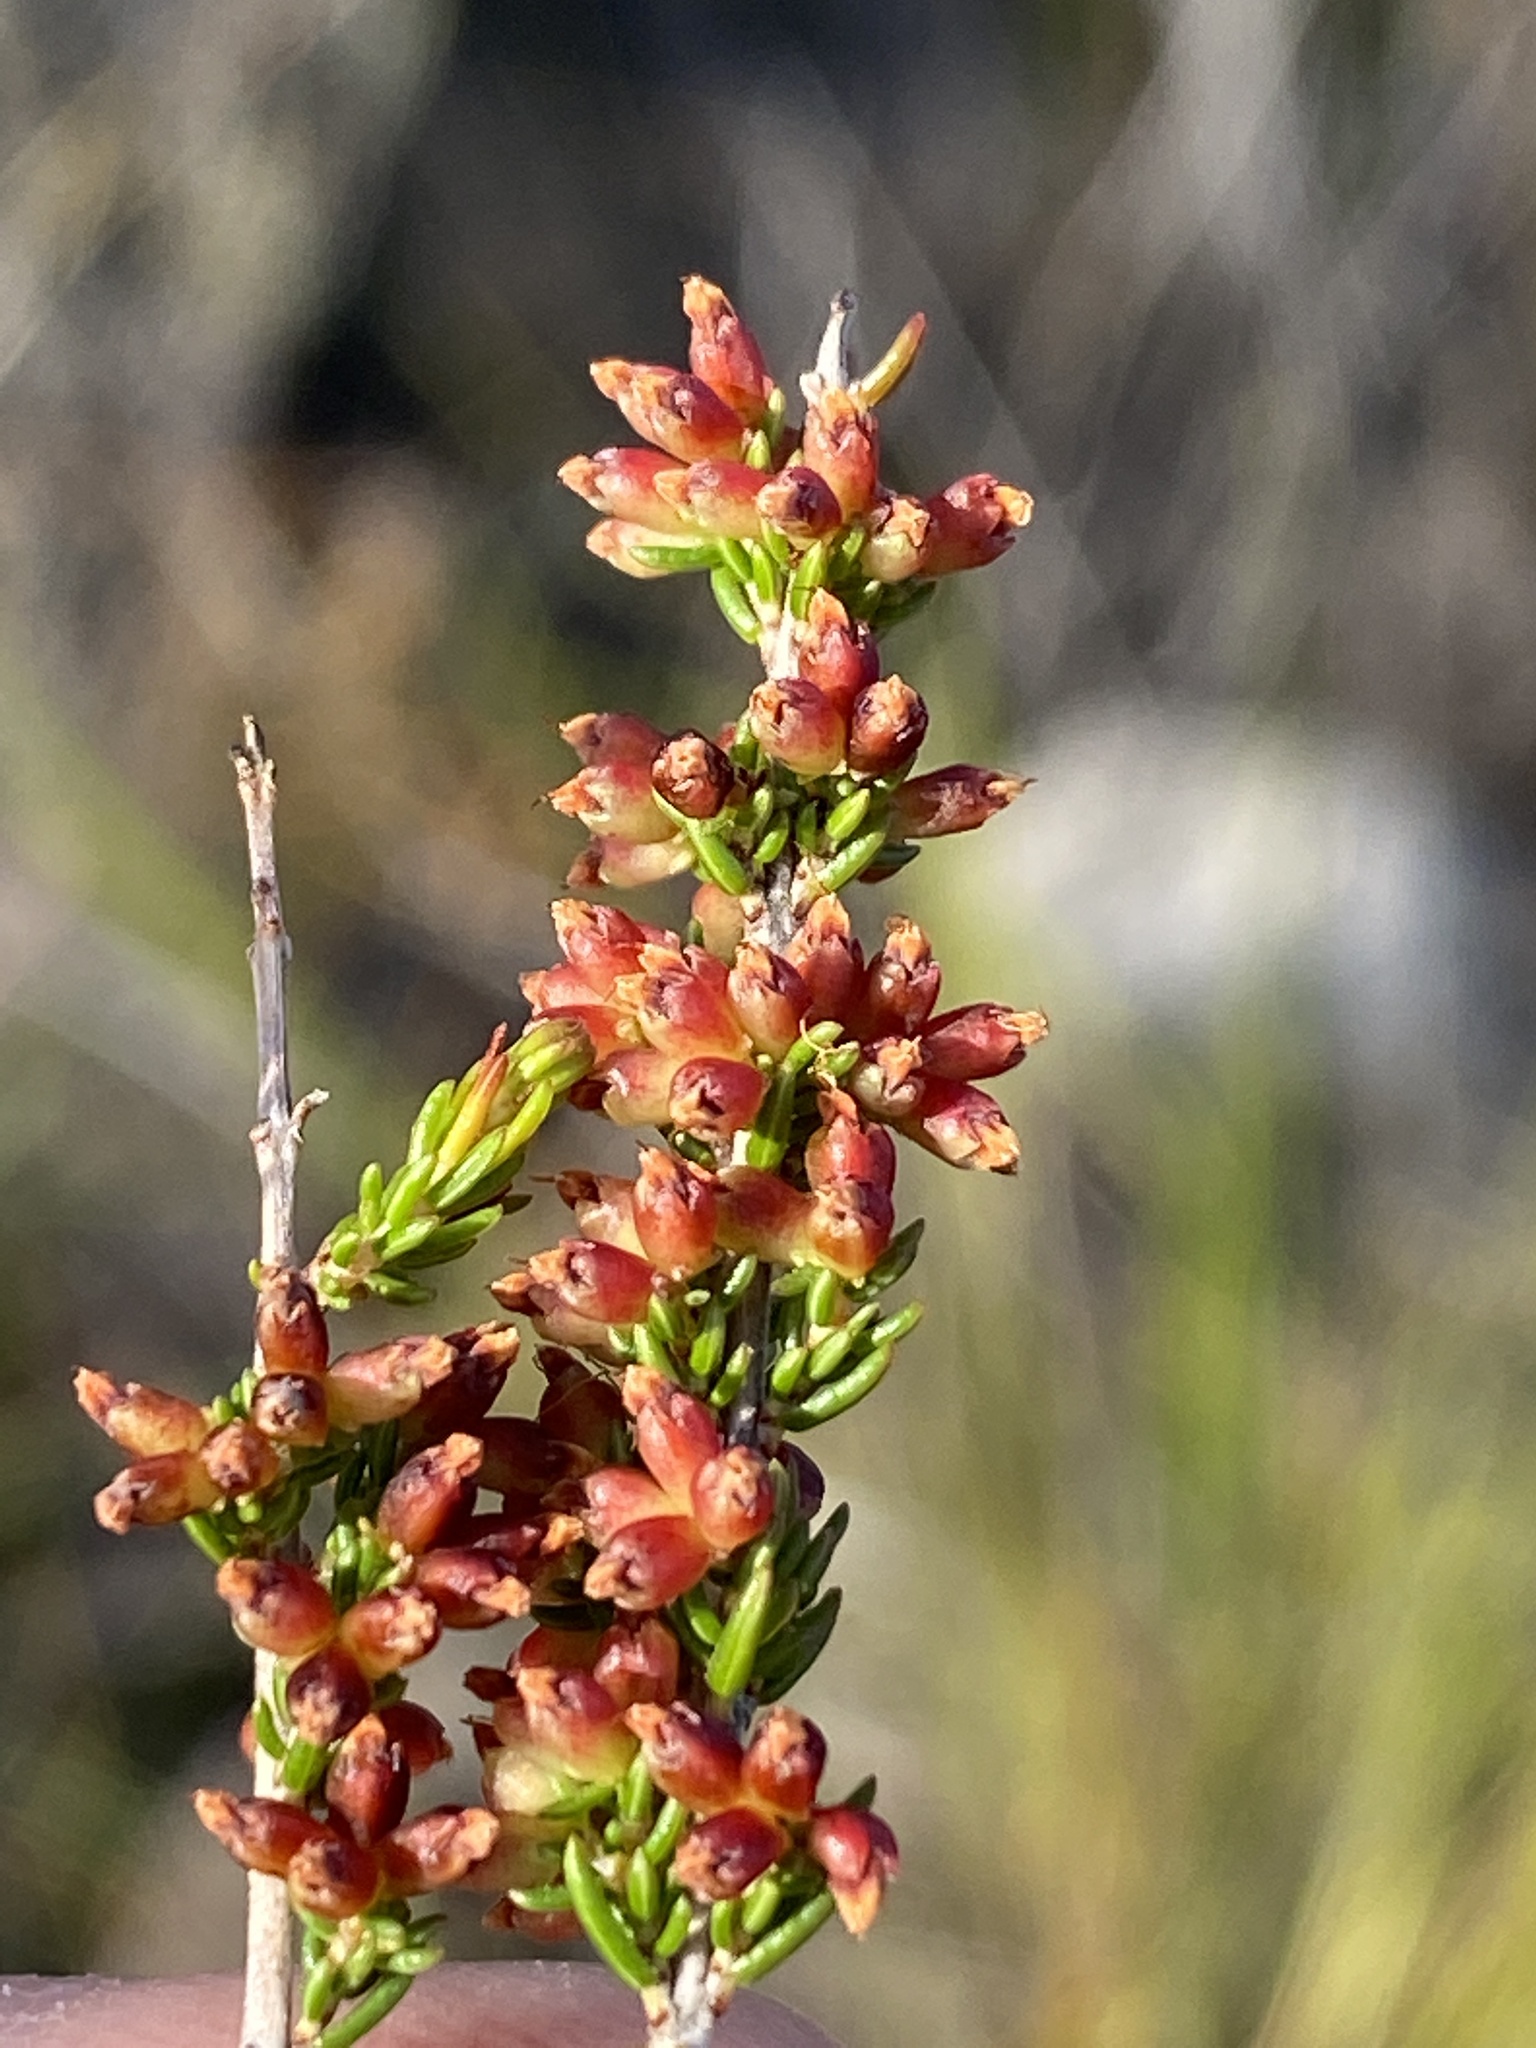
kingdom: Plantae
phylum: Tracheophyta
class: Magnoliopsida
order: Ericales
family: Ericaceae
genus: Erica
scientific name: Erica anguliger
